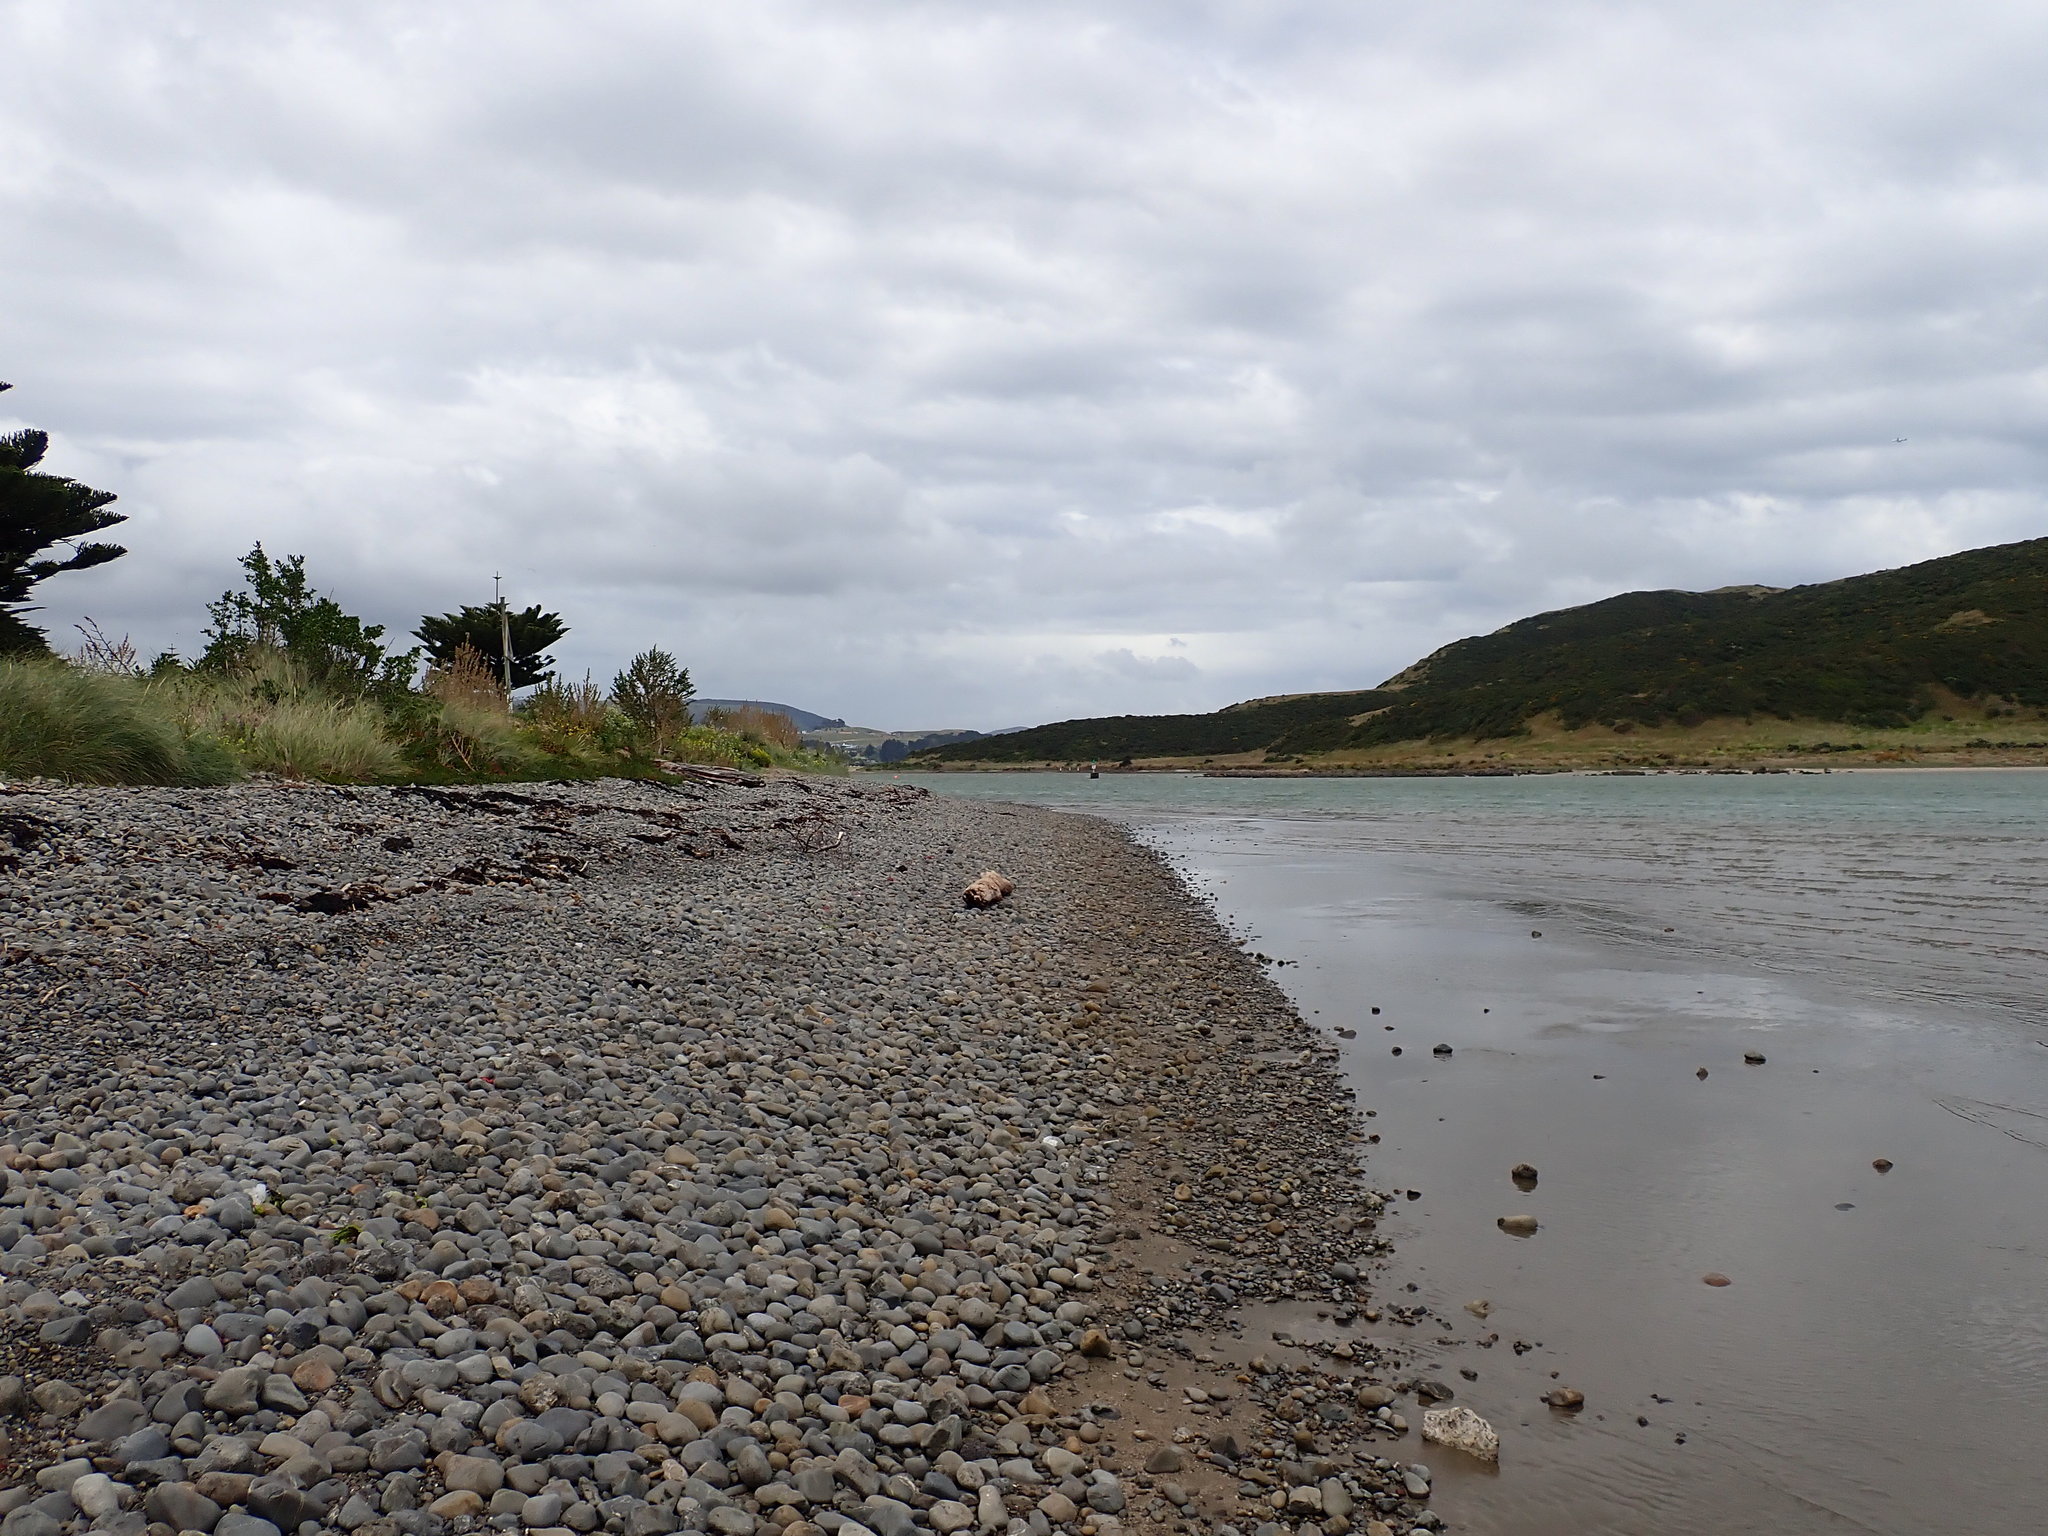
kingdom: Animalia
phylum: Nemertea
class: Hoplonemertea
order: Monostilifera
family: Emplectonematidae
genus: Nemertopsis
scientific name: Nemertopsis bivittata
